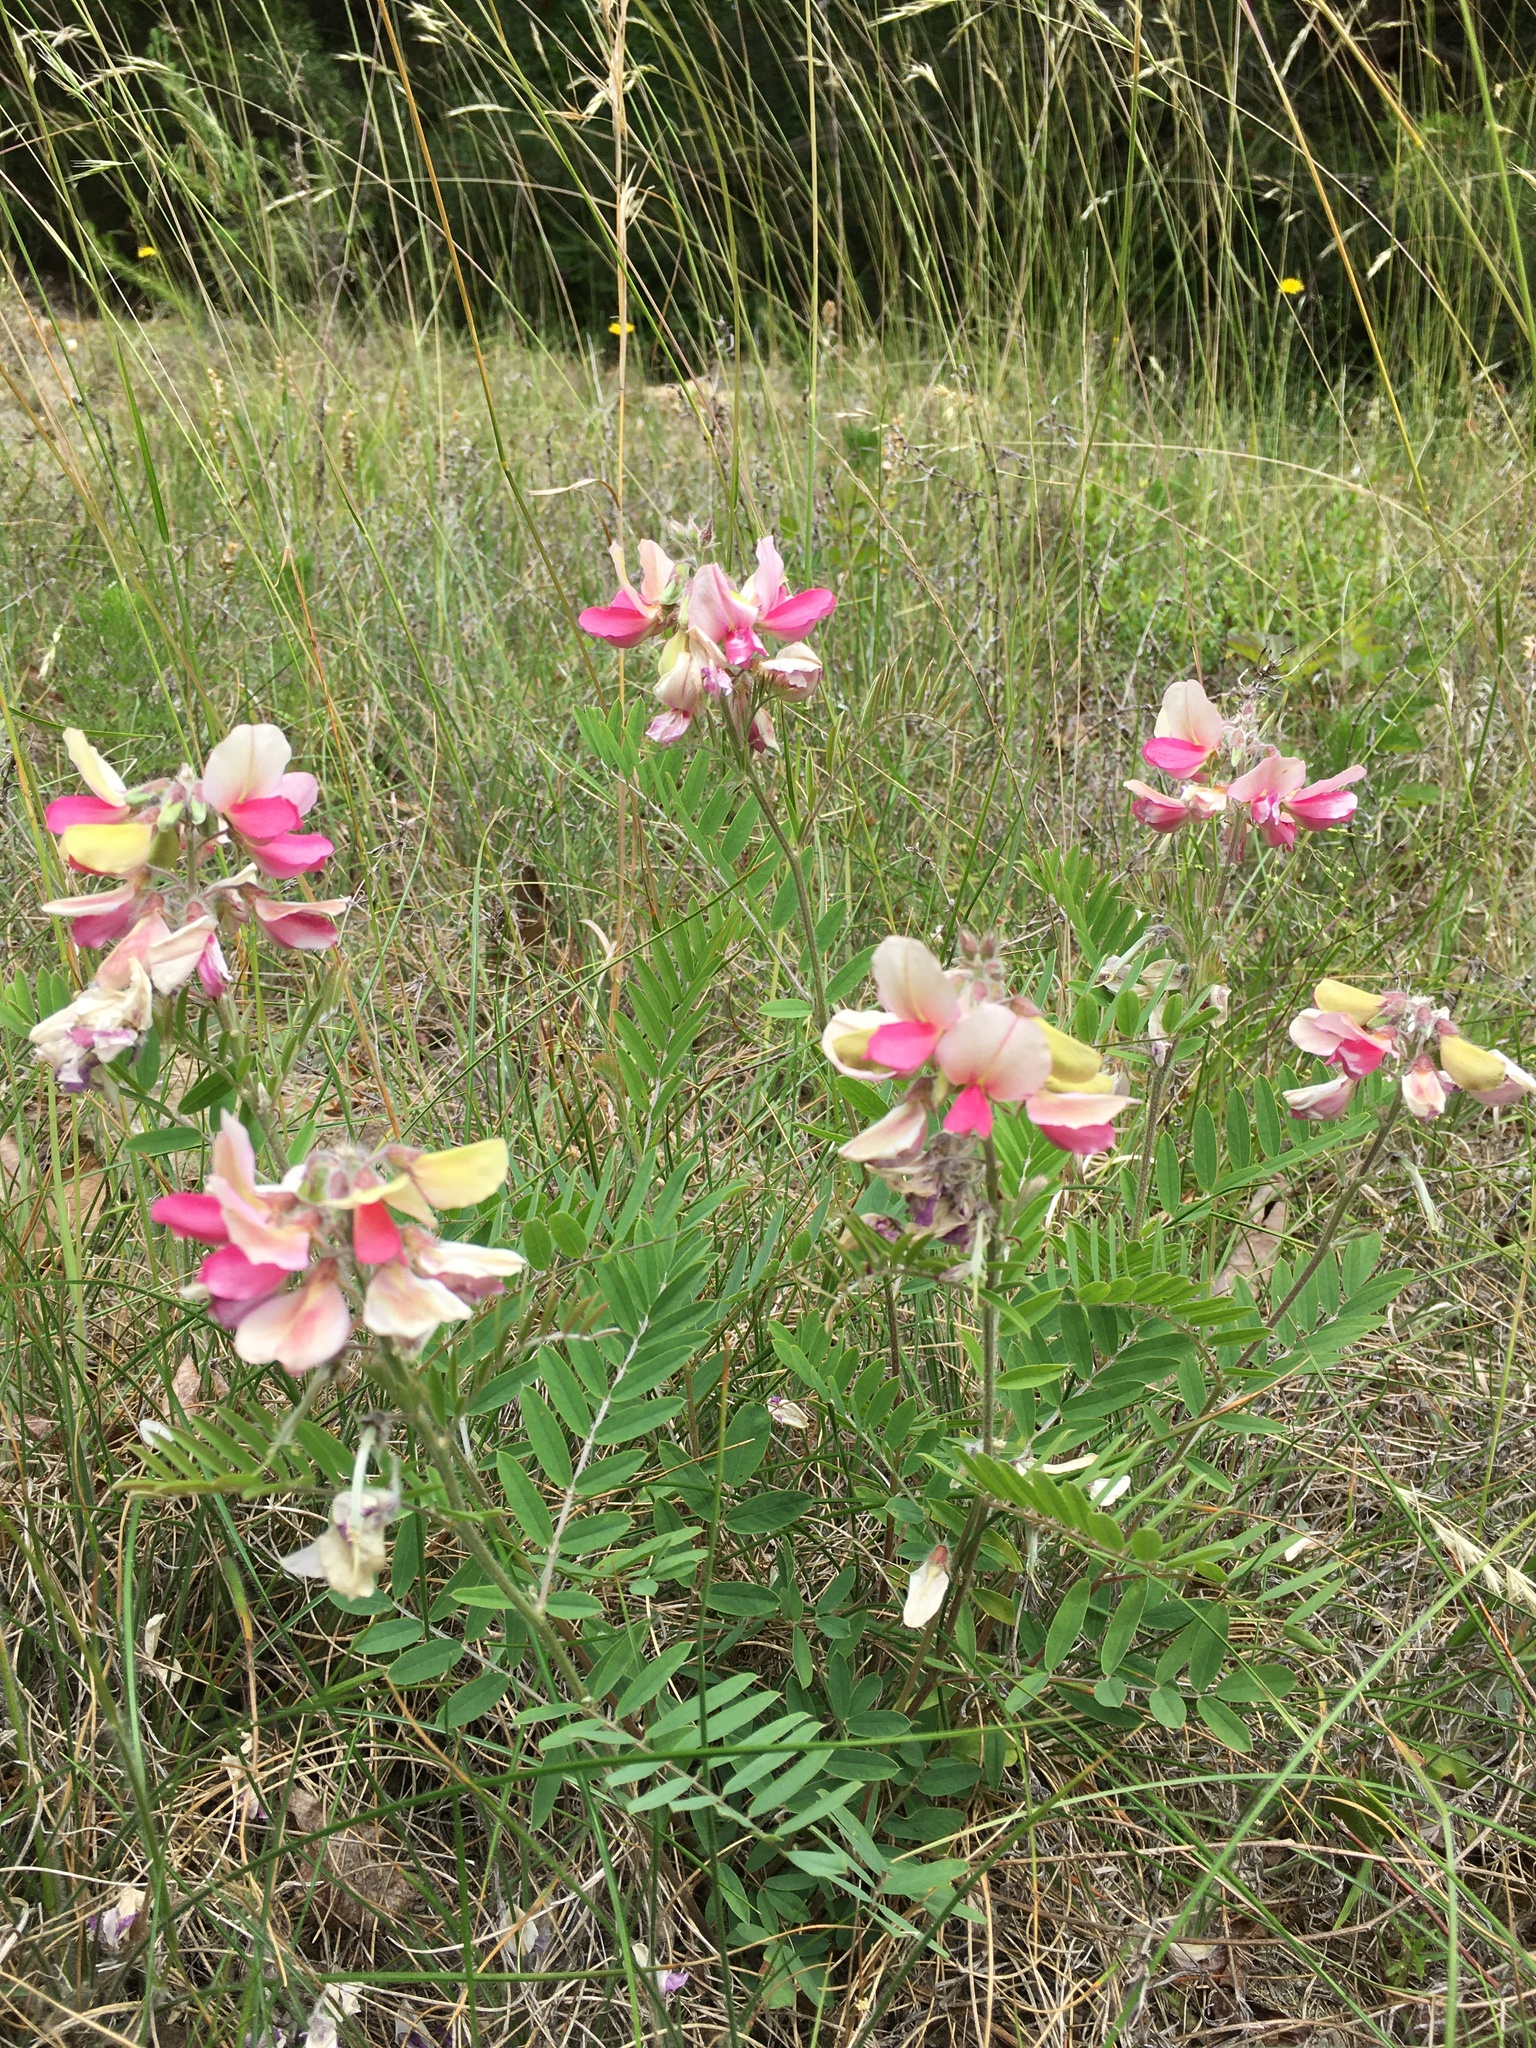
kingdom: Plantae
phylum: Tracheophyta
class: Magnoliopsida
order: Fabales
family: Fabaceae
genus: Tephrosia
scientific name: Tephrosia virginiana
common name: Rabbit-pea
